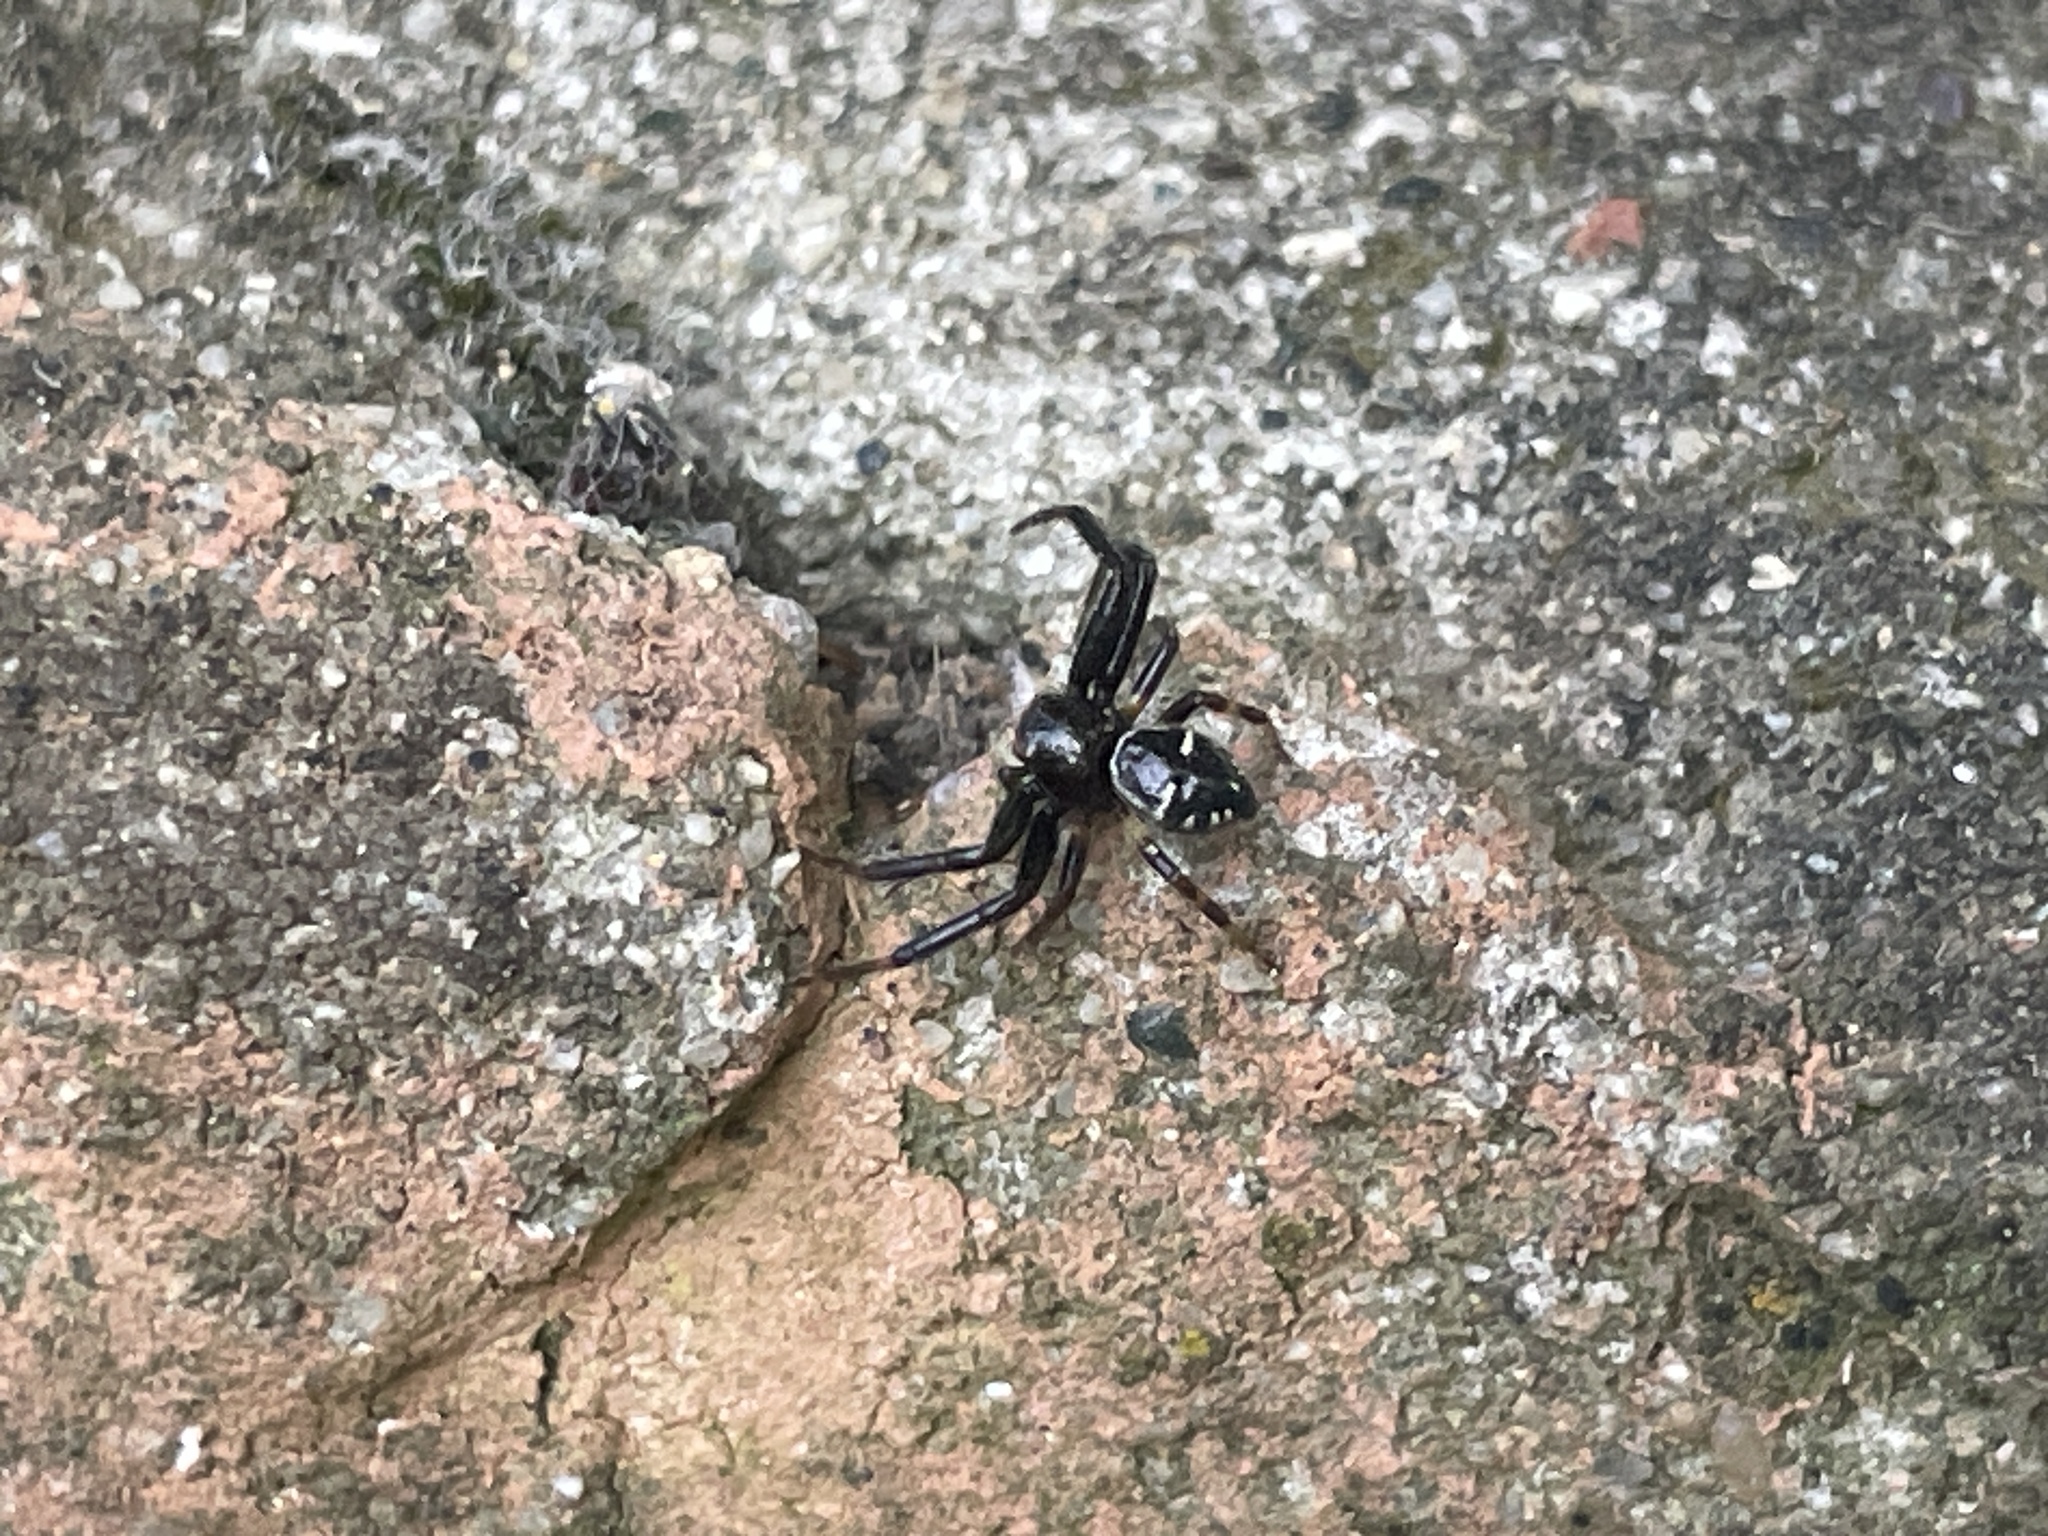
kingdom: Animalia
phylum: Arthropoda
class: Arachnida
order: Araneae
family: Thomisidae
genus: Synema
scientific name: Synema globosum
